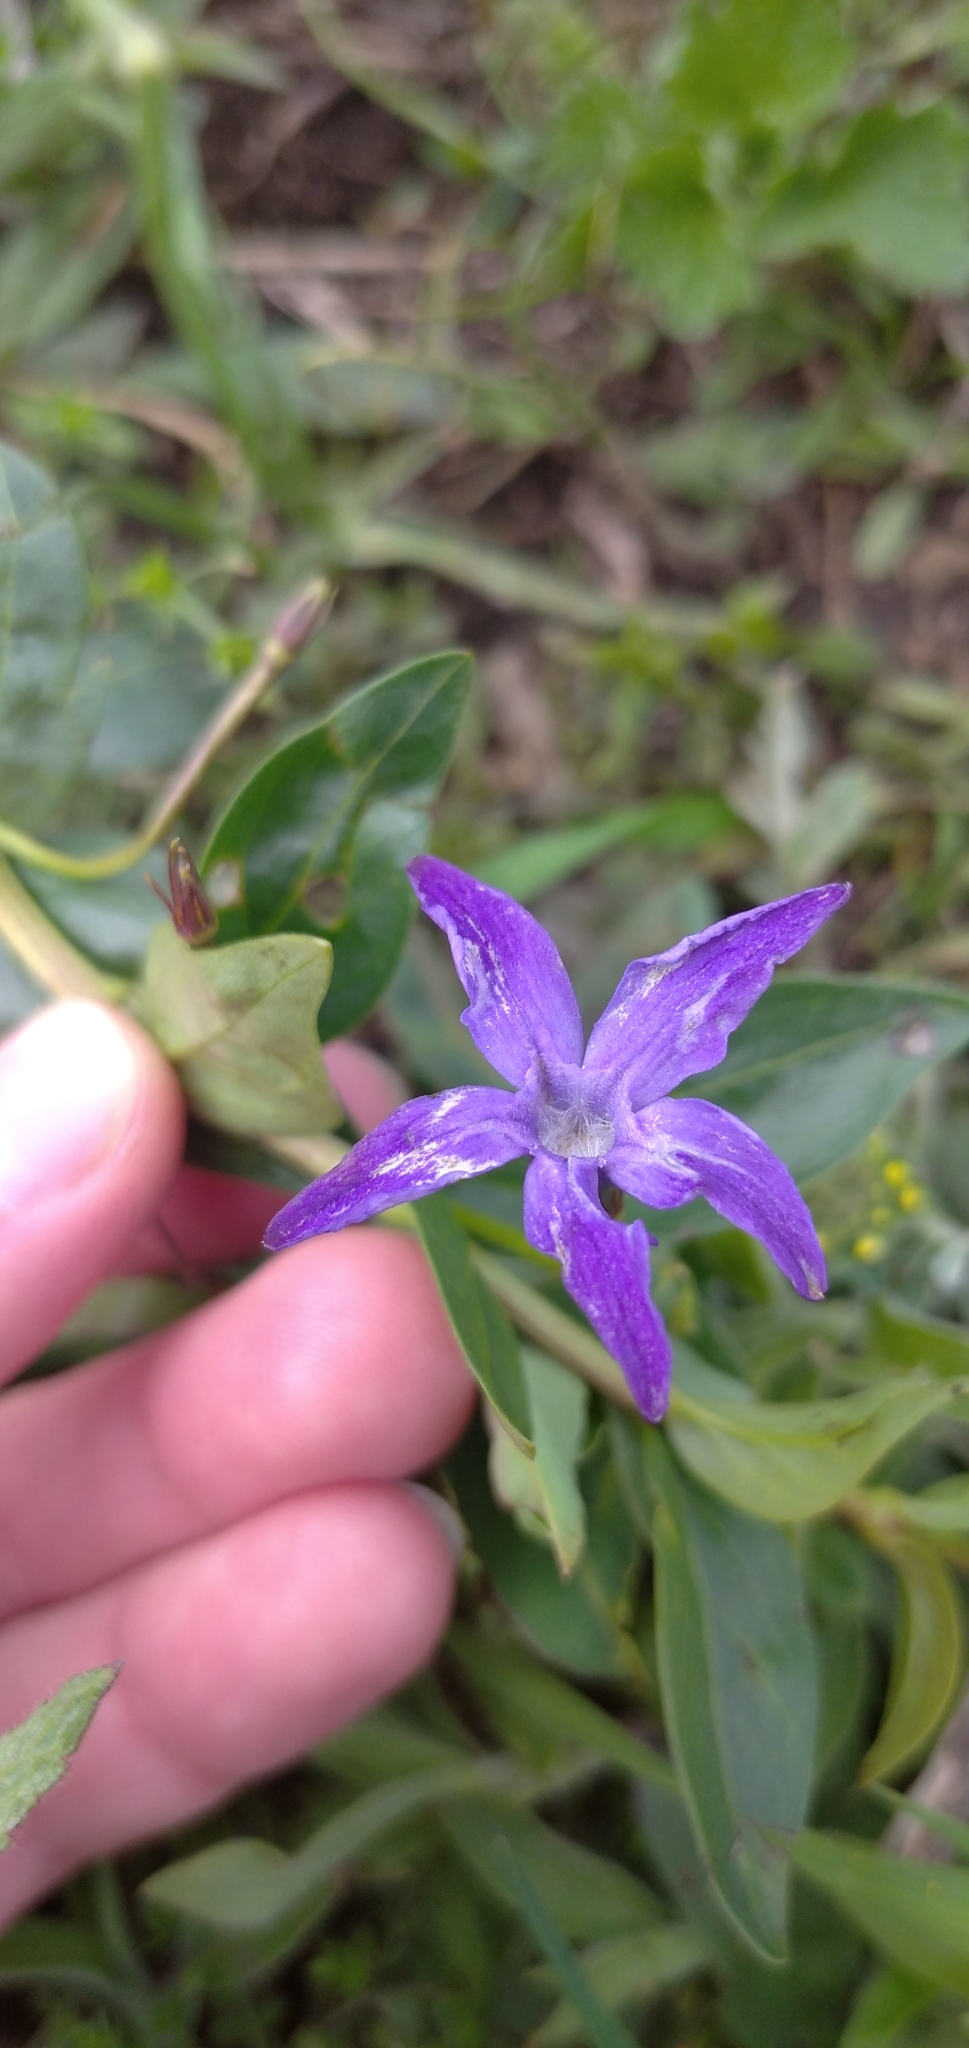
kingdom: Plantae
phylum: Tracheophyta
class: Magnoliopsida
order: Gentianales
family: Apocynaceae
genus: Vinca
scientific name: Vinca herbacea
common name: Herbaceous periwinkle
